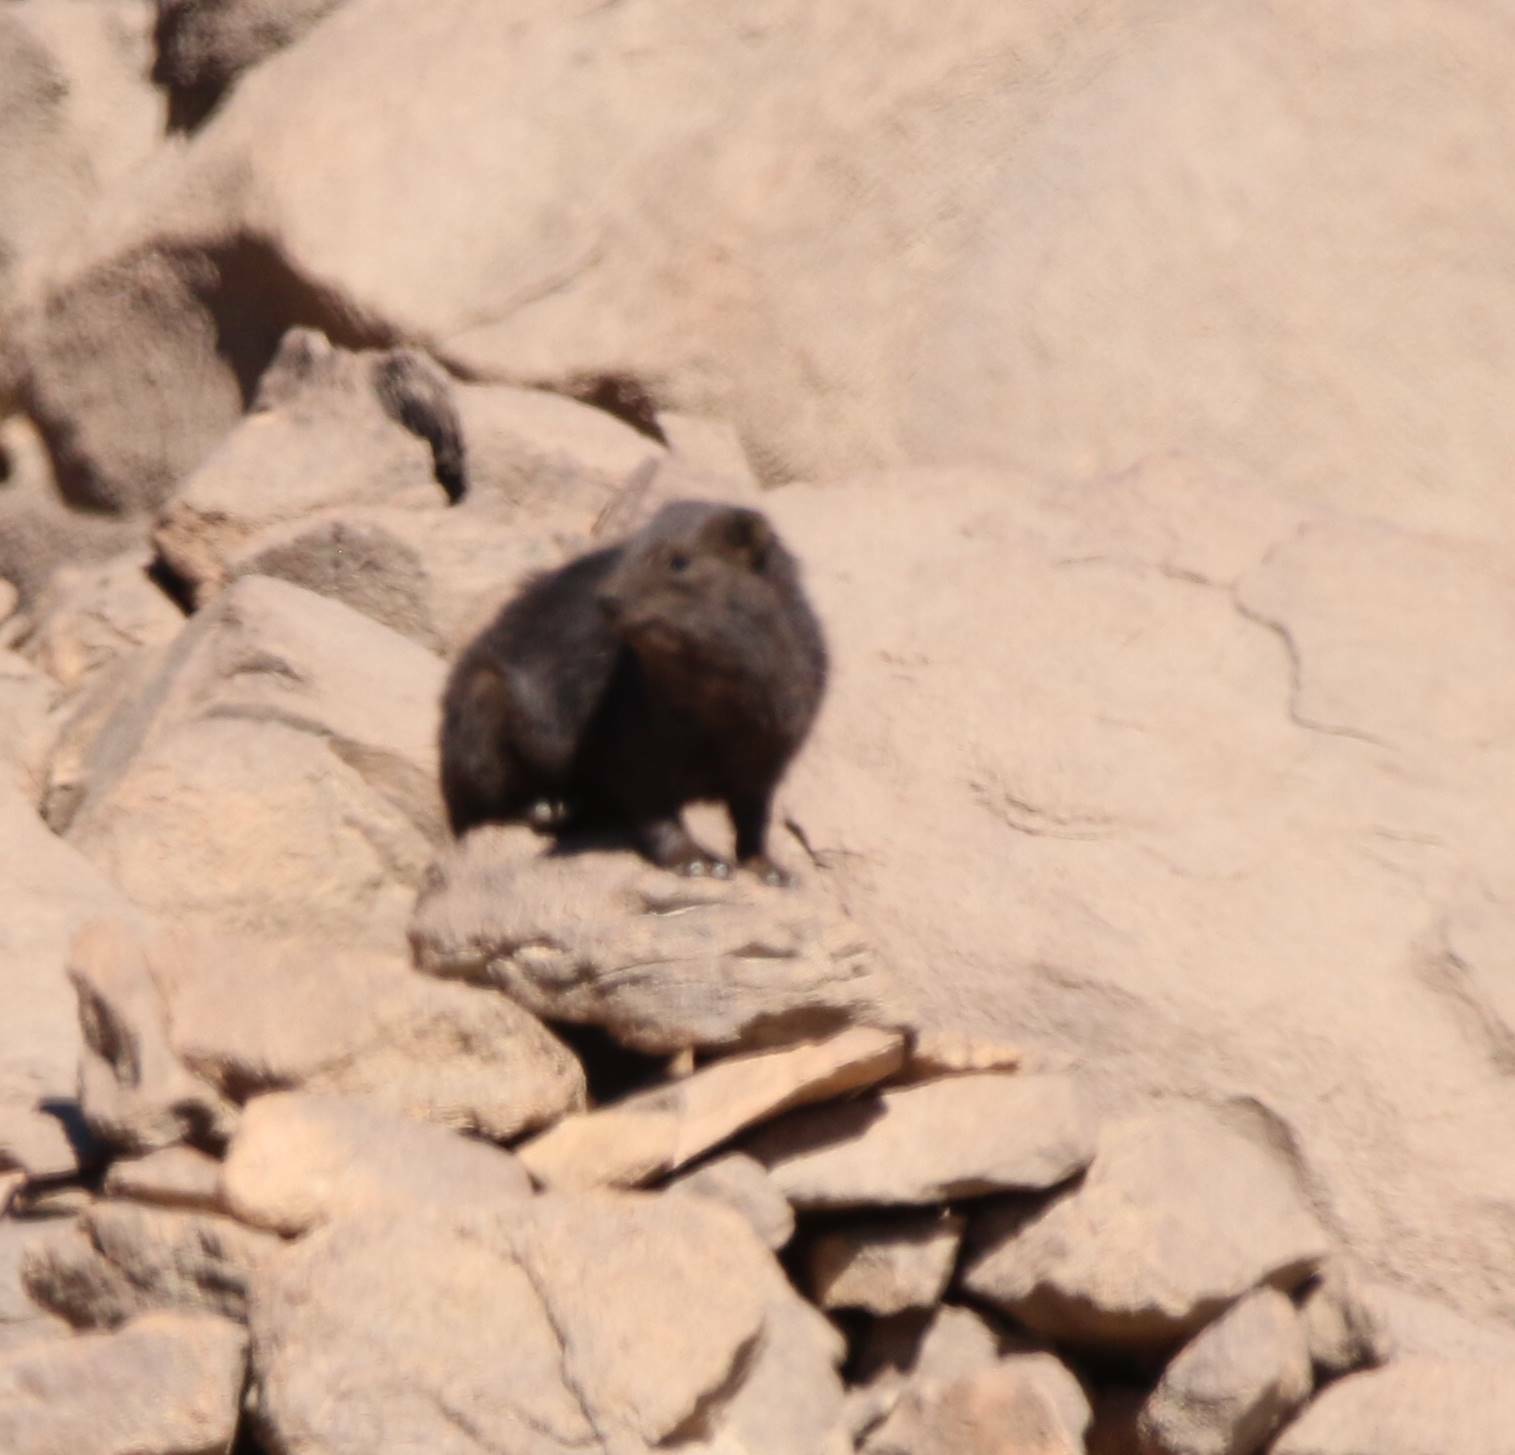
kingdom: Animalia
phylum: Chordata
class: Mammalia
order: Hyracoidea
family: Procaviidae
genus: Procavia
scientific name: Procavia capensis
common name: Rock hyrax
